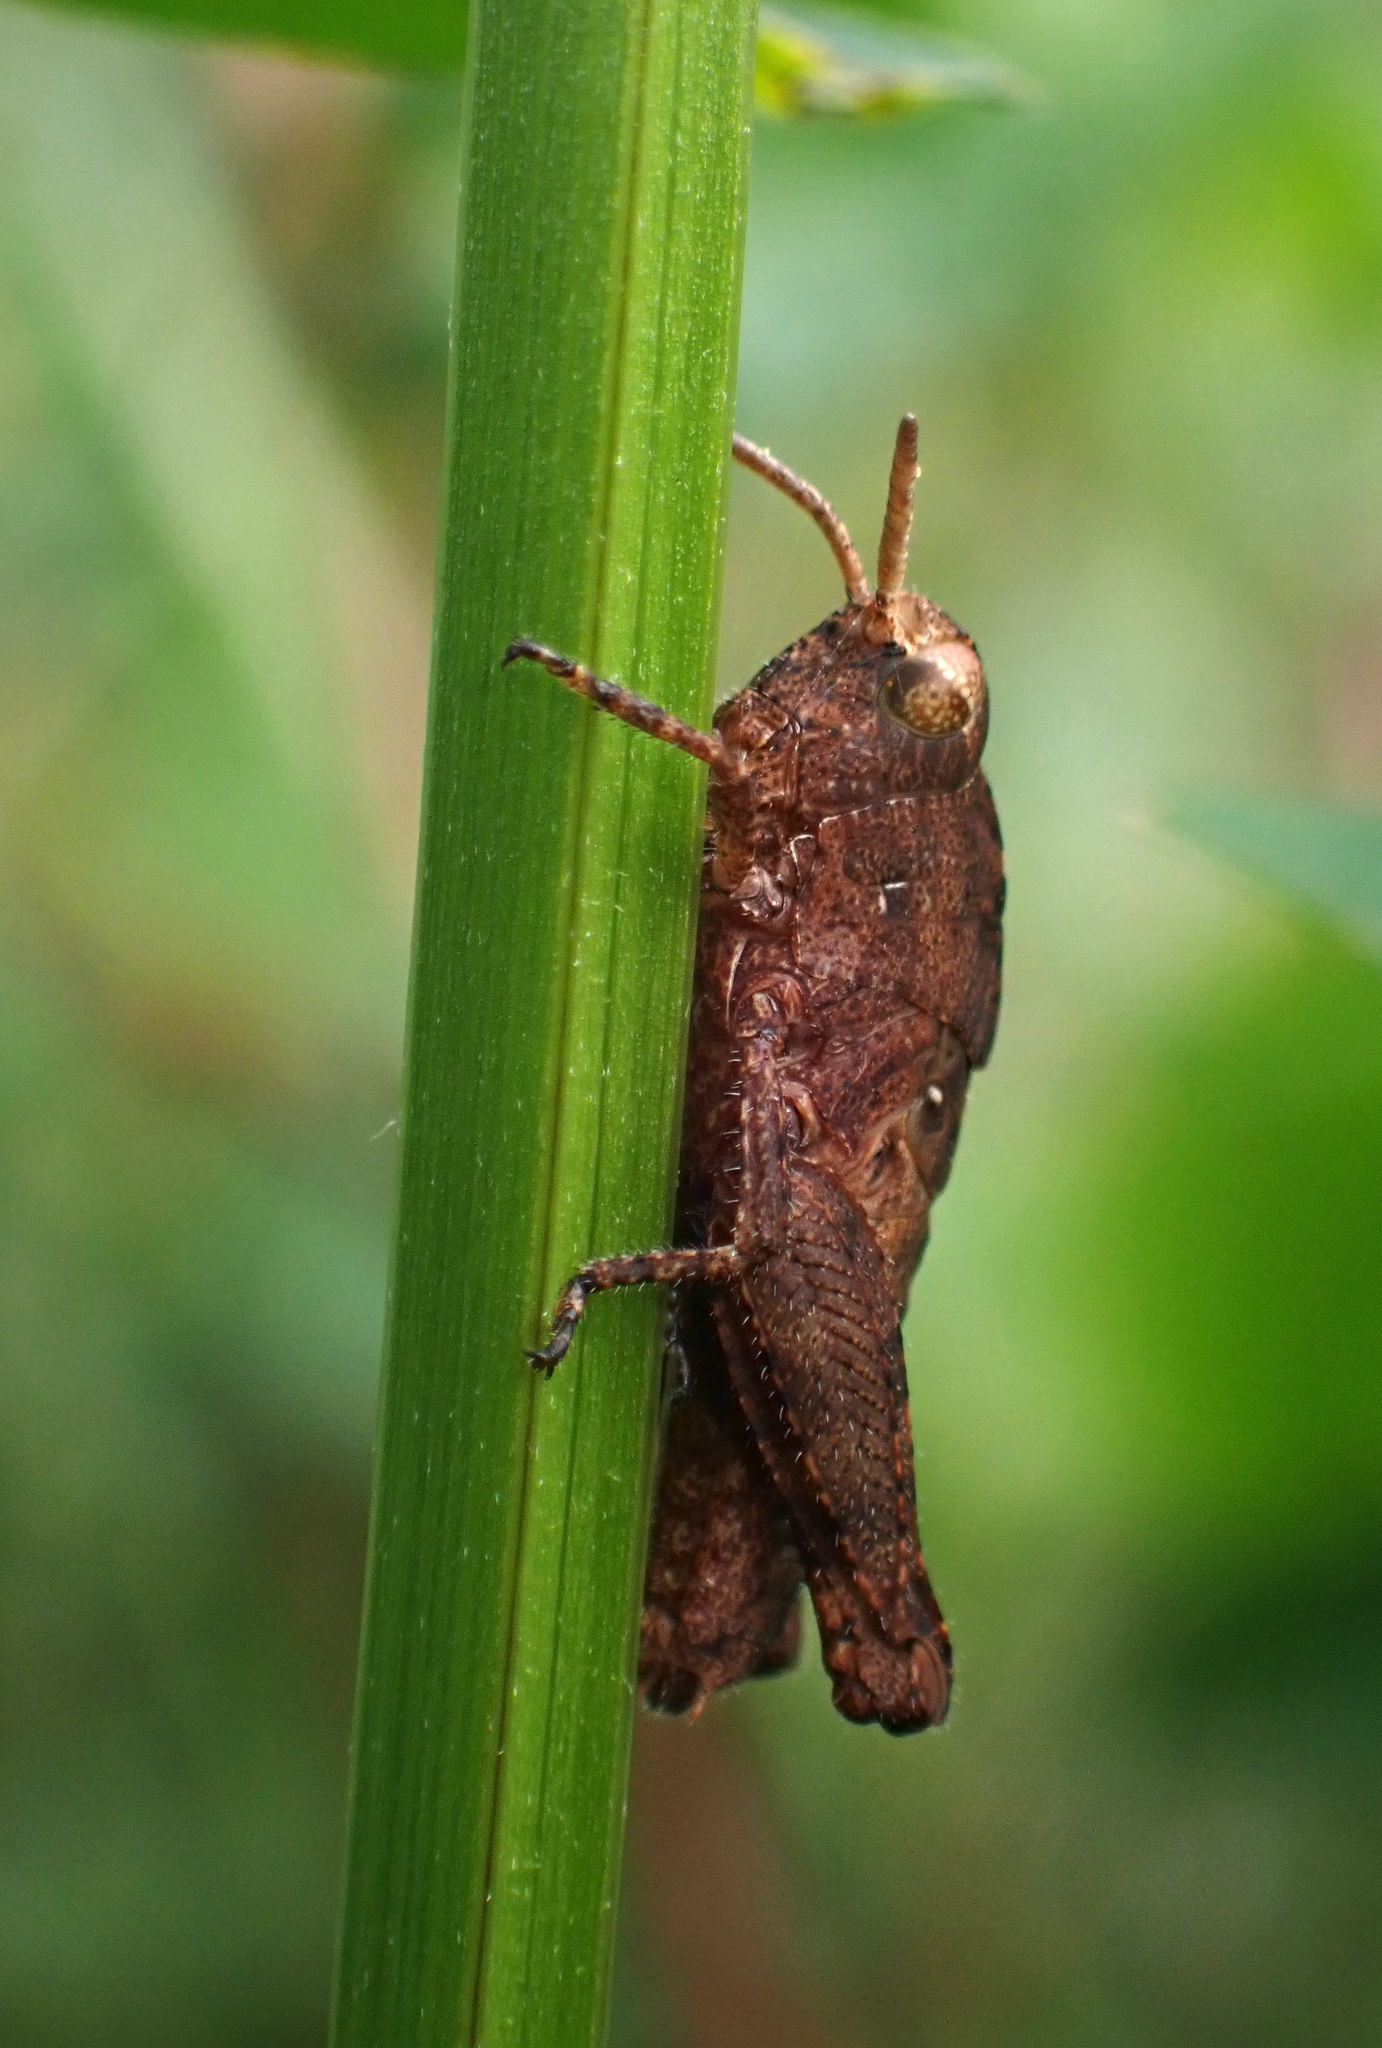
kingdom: Animalia
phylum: Arthropoda
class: Insecta
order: Orthoptera
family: Acrididae
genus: Chortophaga
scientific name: Chortophaga australior
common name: Southern green-striped grasshopper
